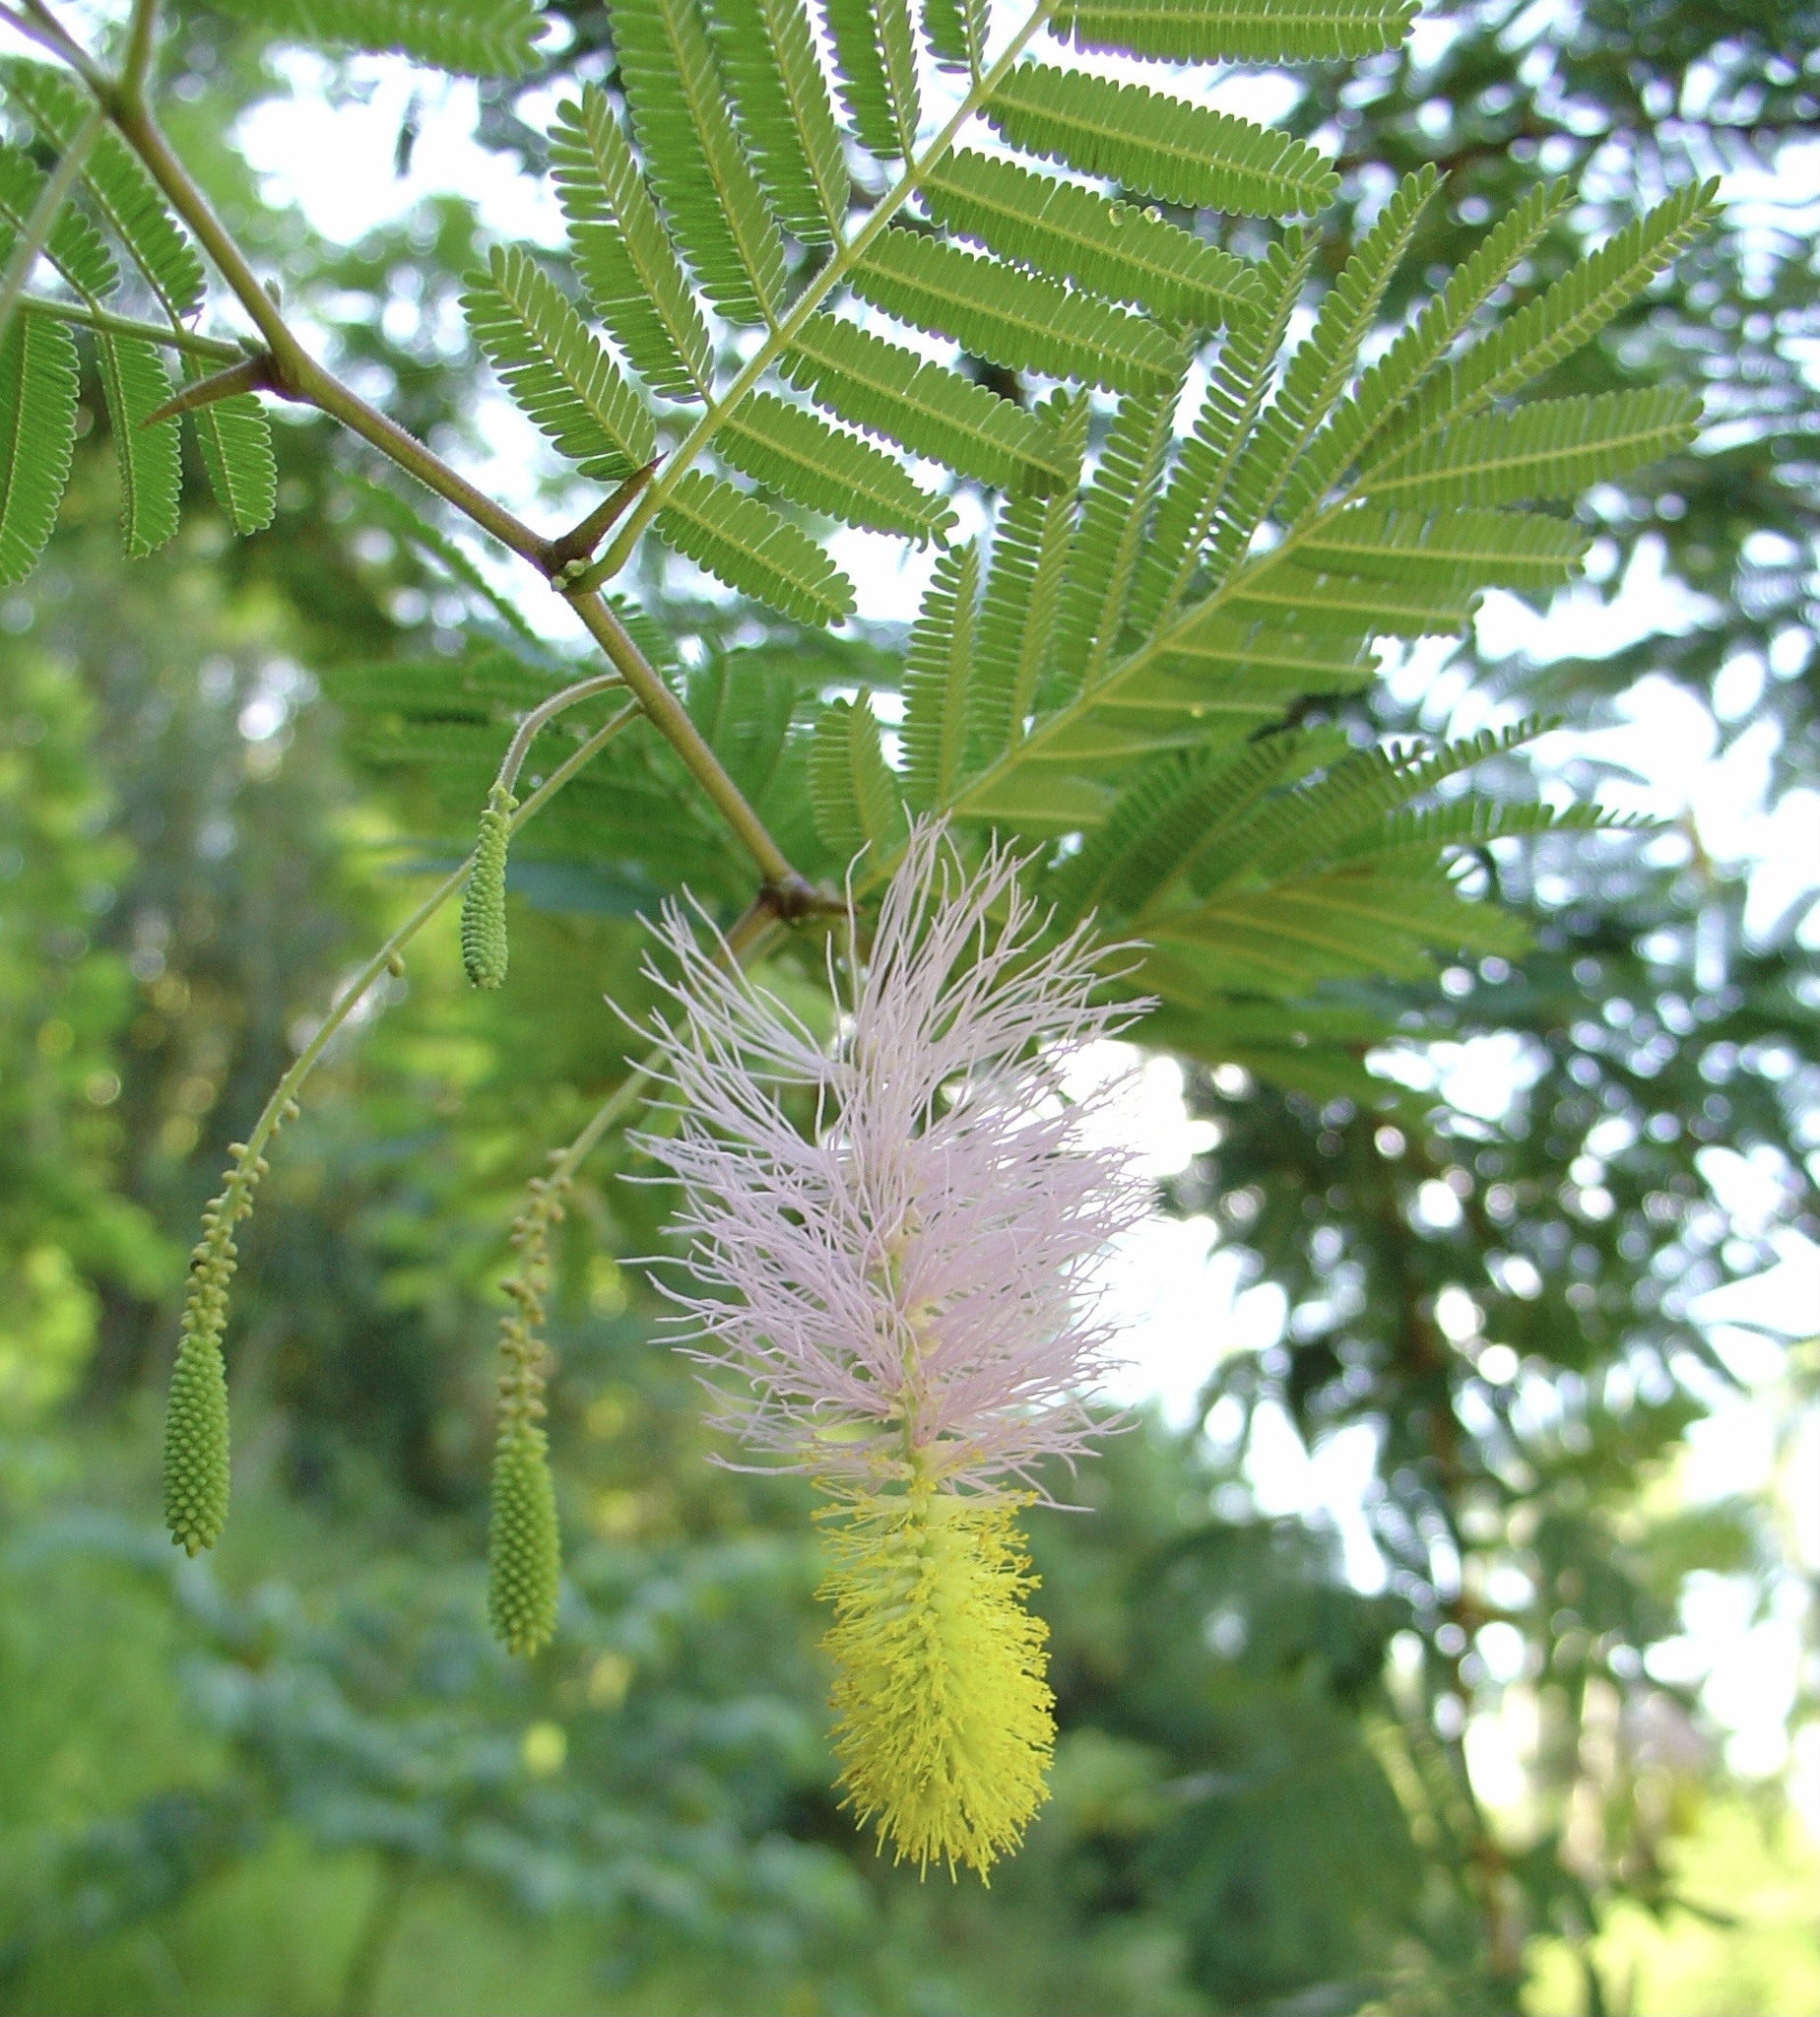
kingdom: Plantae
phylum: Tracheophyta
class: Magnoliopsida
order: Fabales
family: Fabaceae
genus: Dichrostachys
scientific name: Dichrostachys cinerea
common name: Sicklebush
